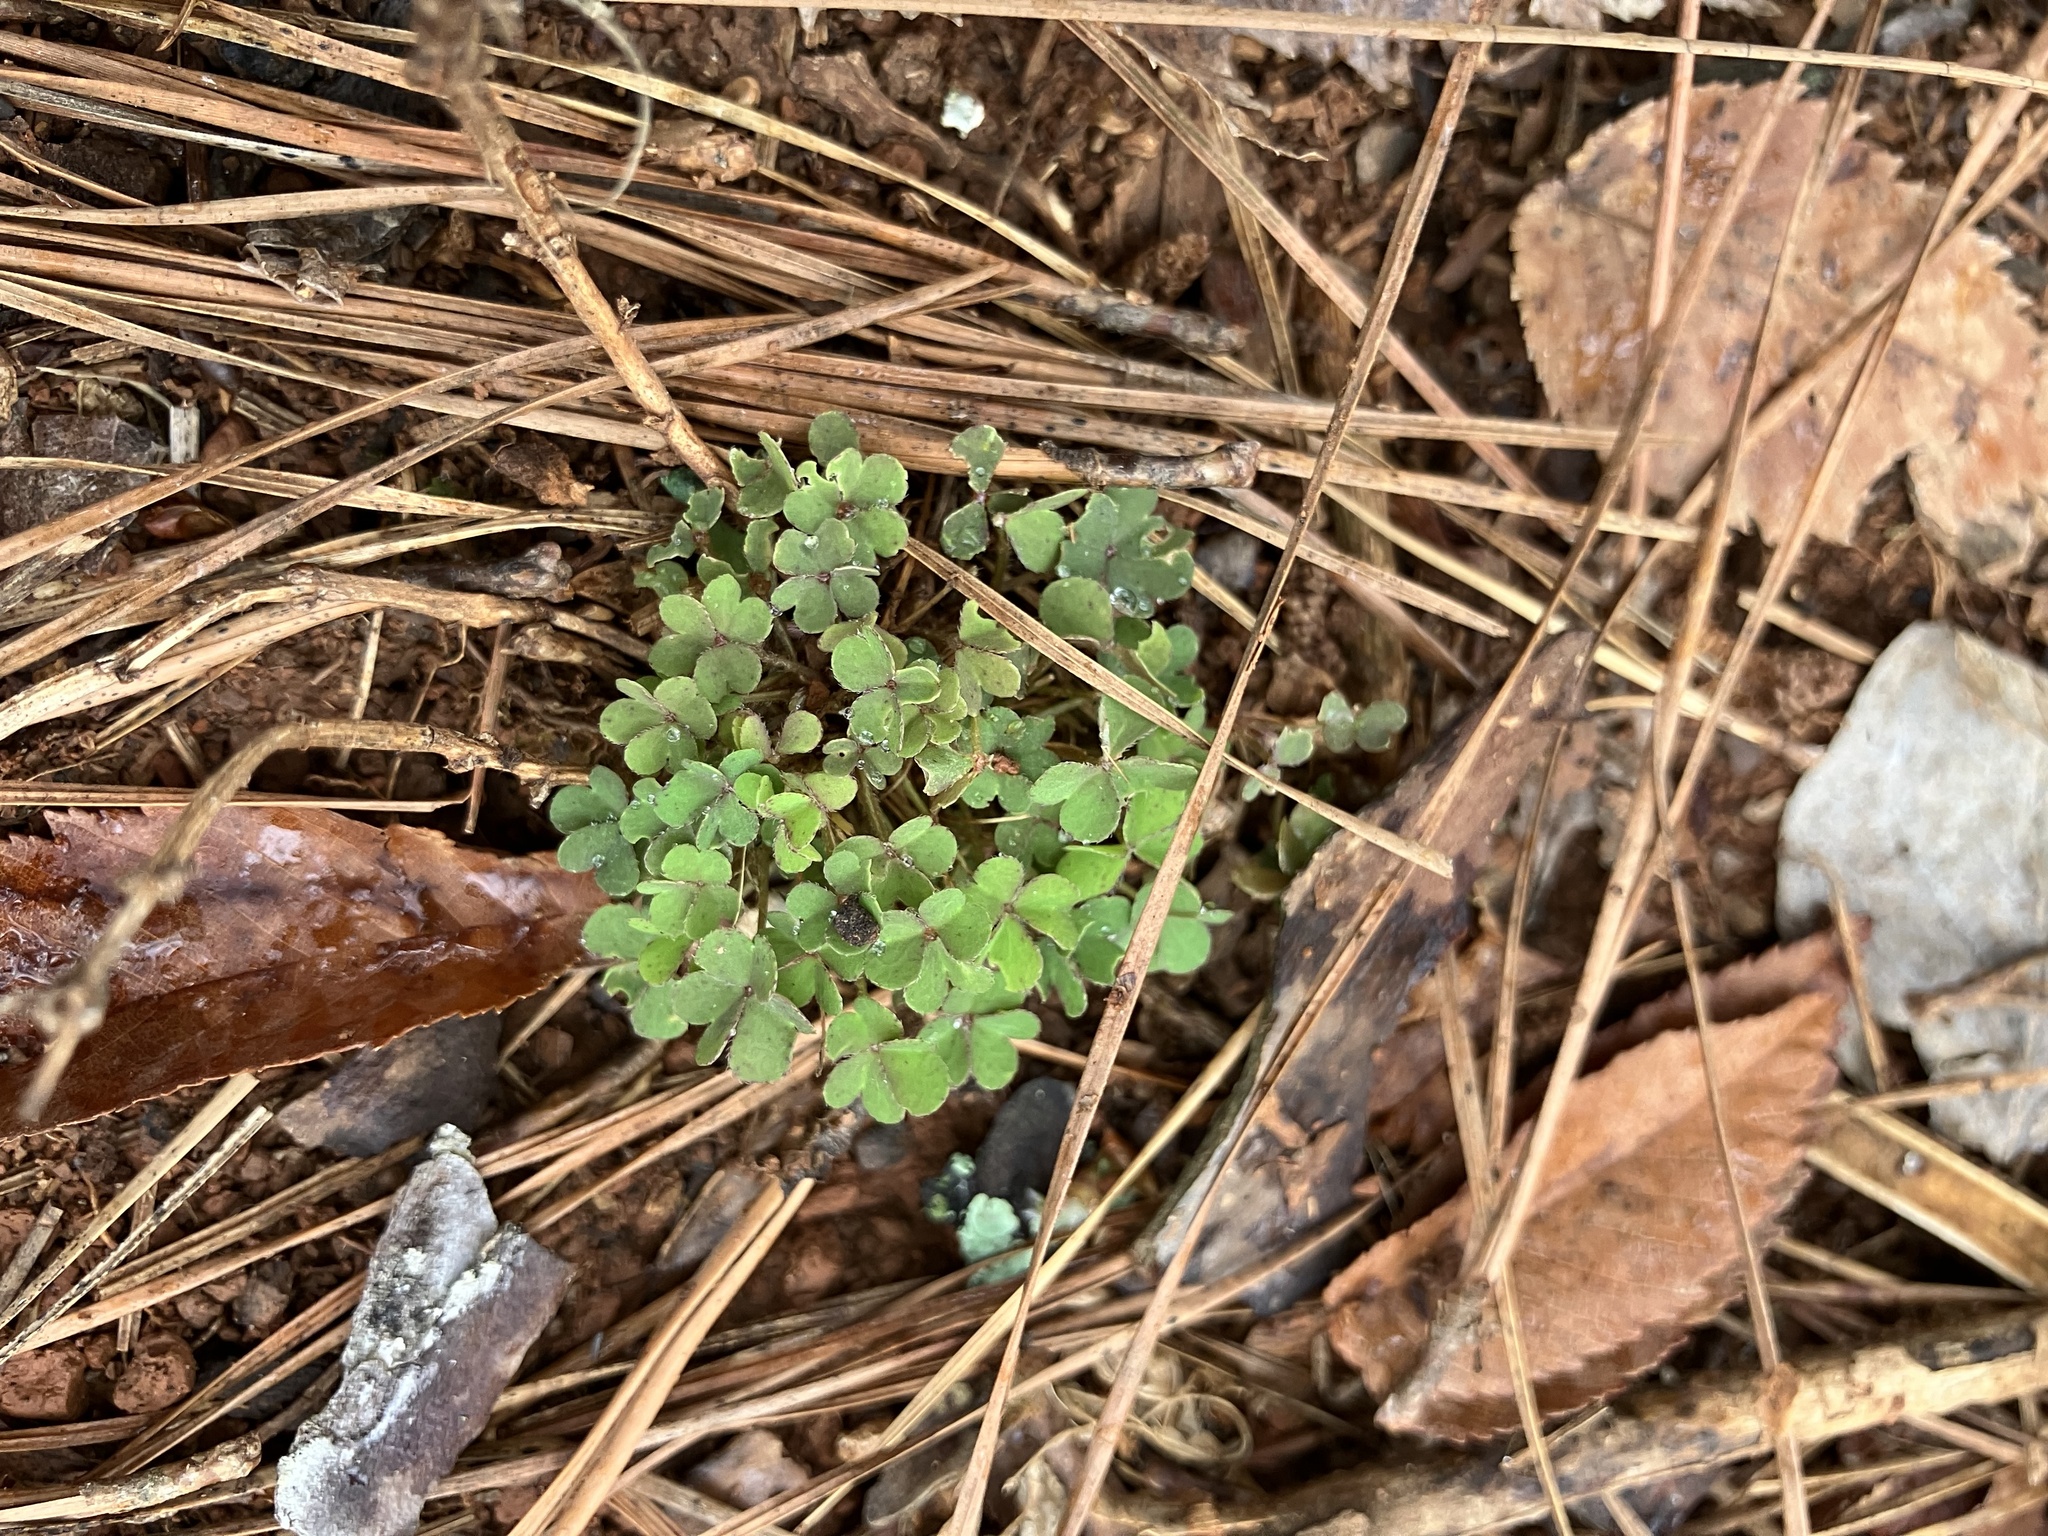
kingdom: Plantae
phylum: Tracheophyta
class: Magnoliopsida
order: Oxalidales
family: Oxalidaceae
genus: Oxalis
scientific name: Oxalis articulata
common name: Pink-sorrel
